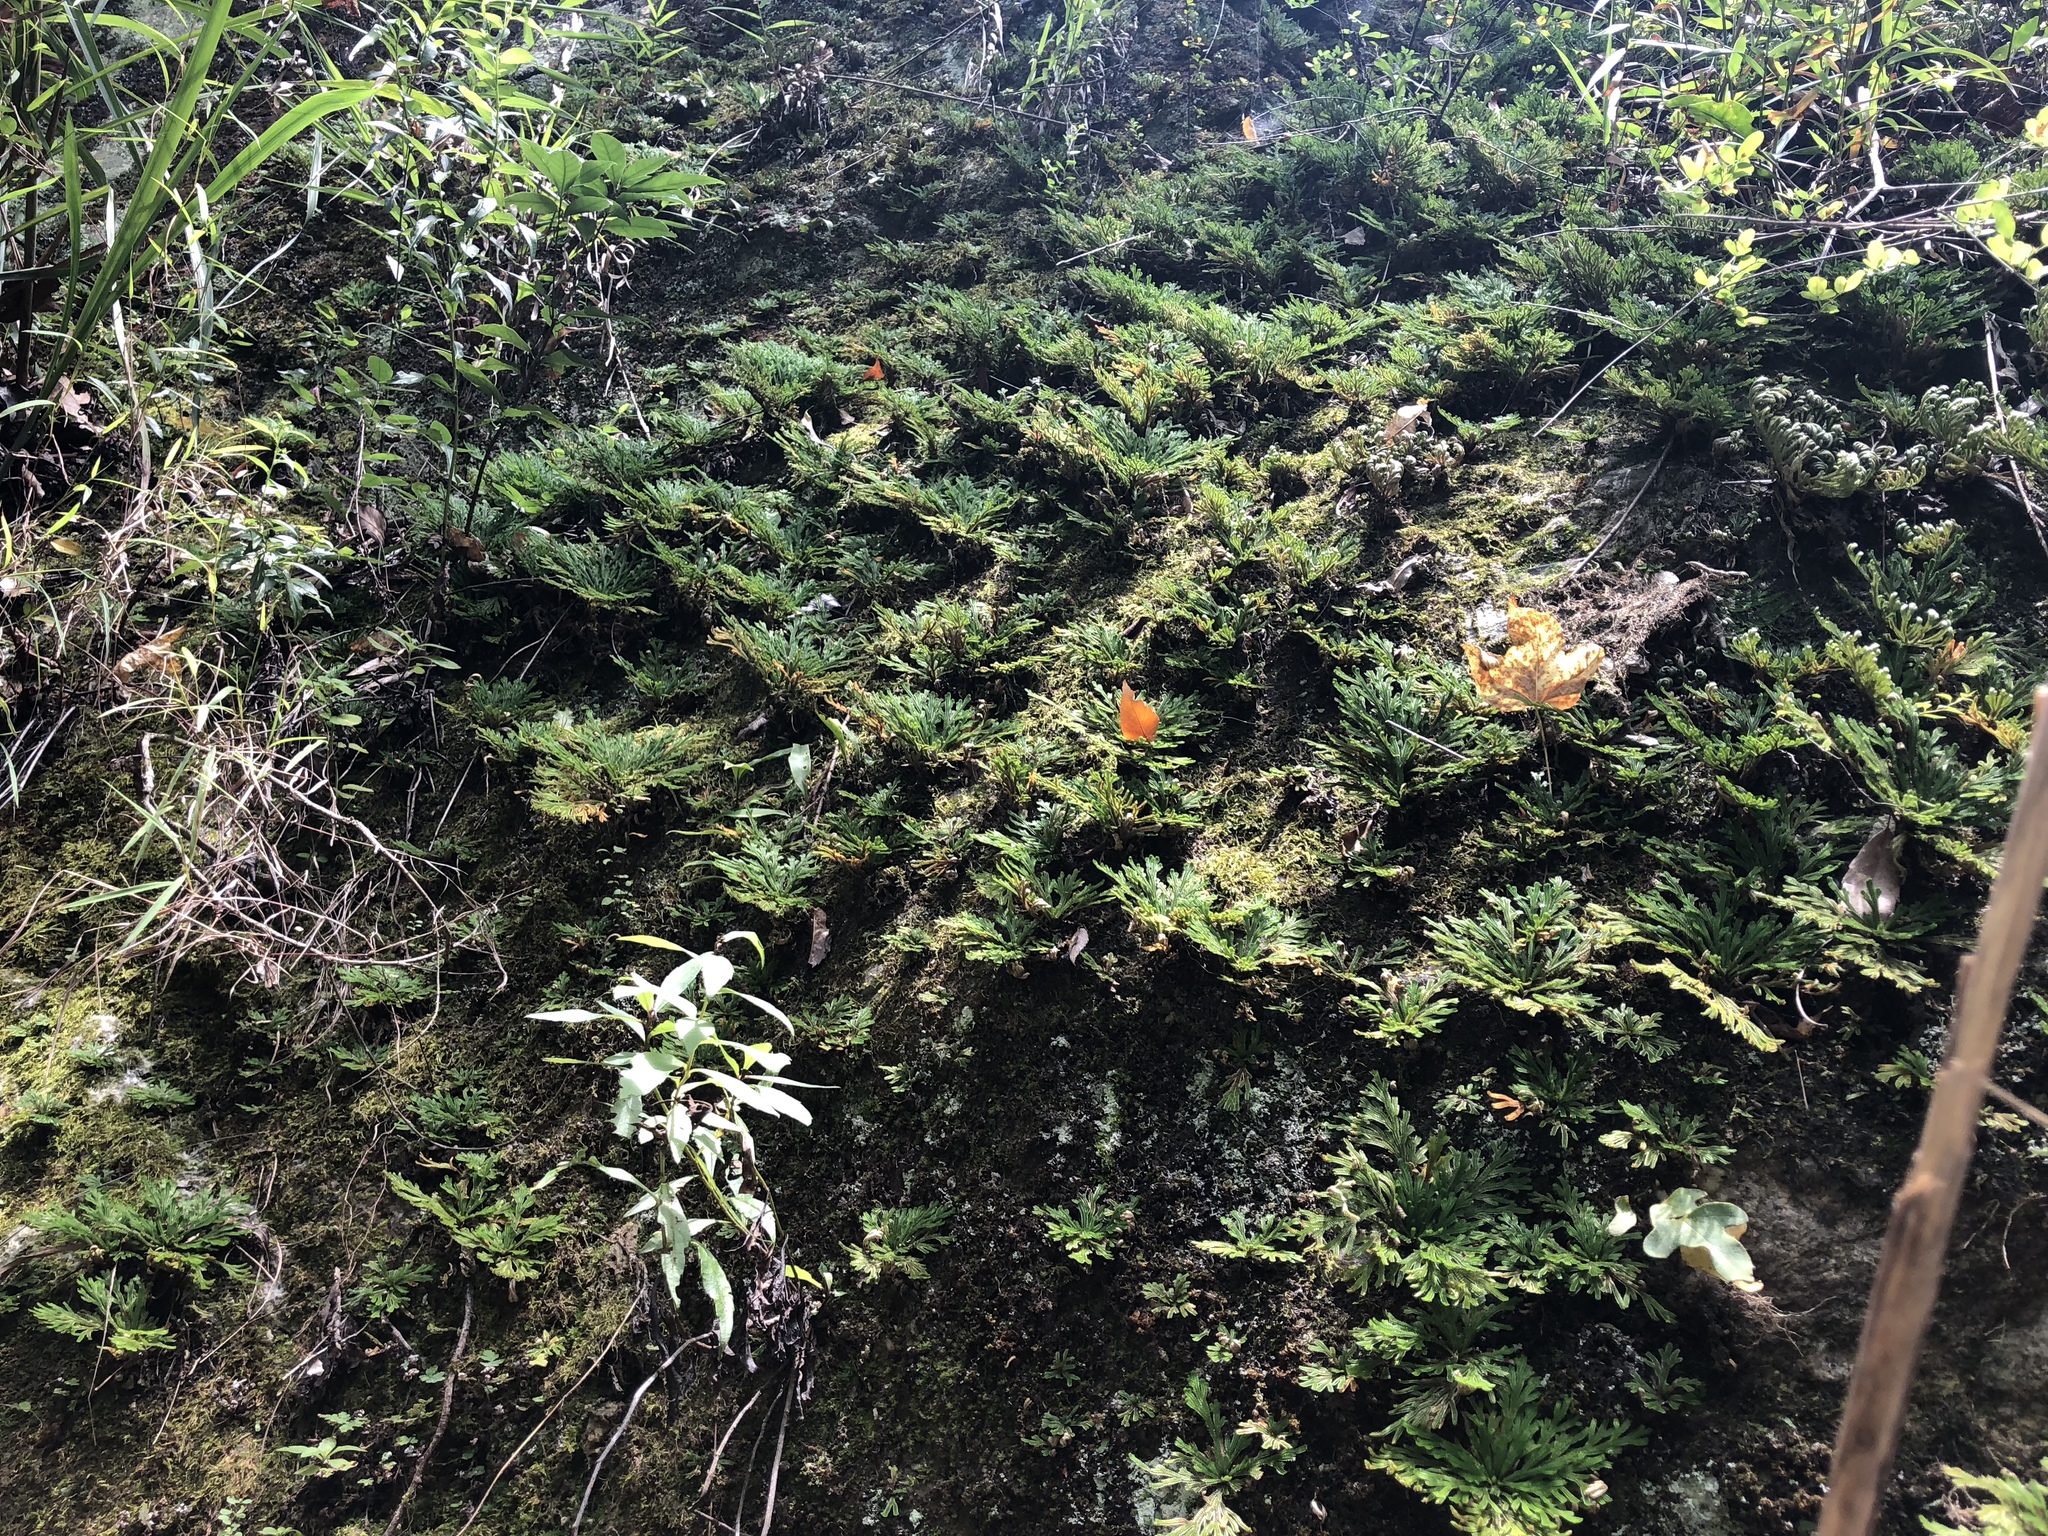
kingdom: Plantae
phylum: Tracheophyta
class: Lycopodiopsida
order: Selaginellales
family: Selaginellaceae
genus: Selaginella
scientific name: Selaginella tamariscina
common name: Little-club-moss
